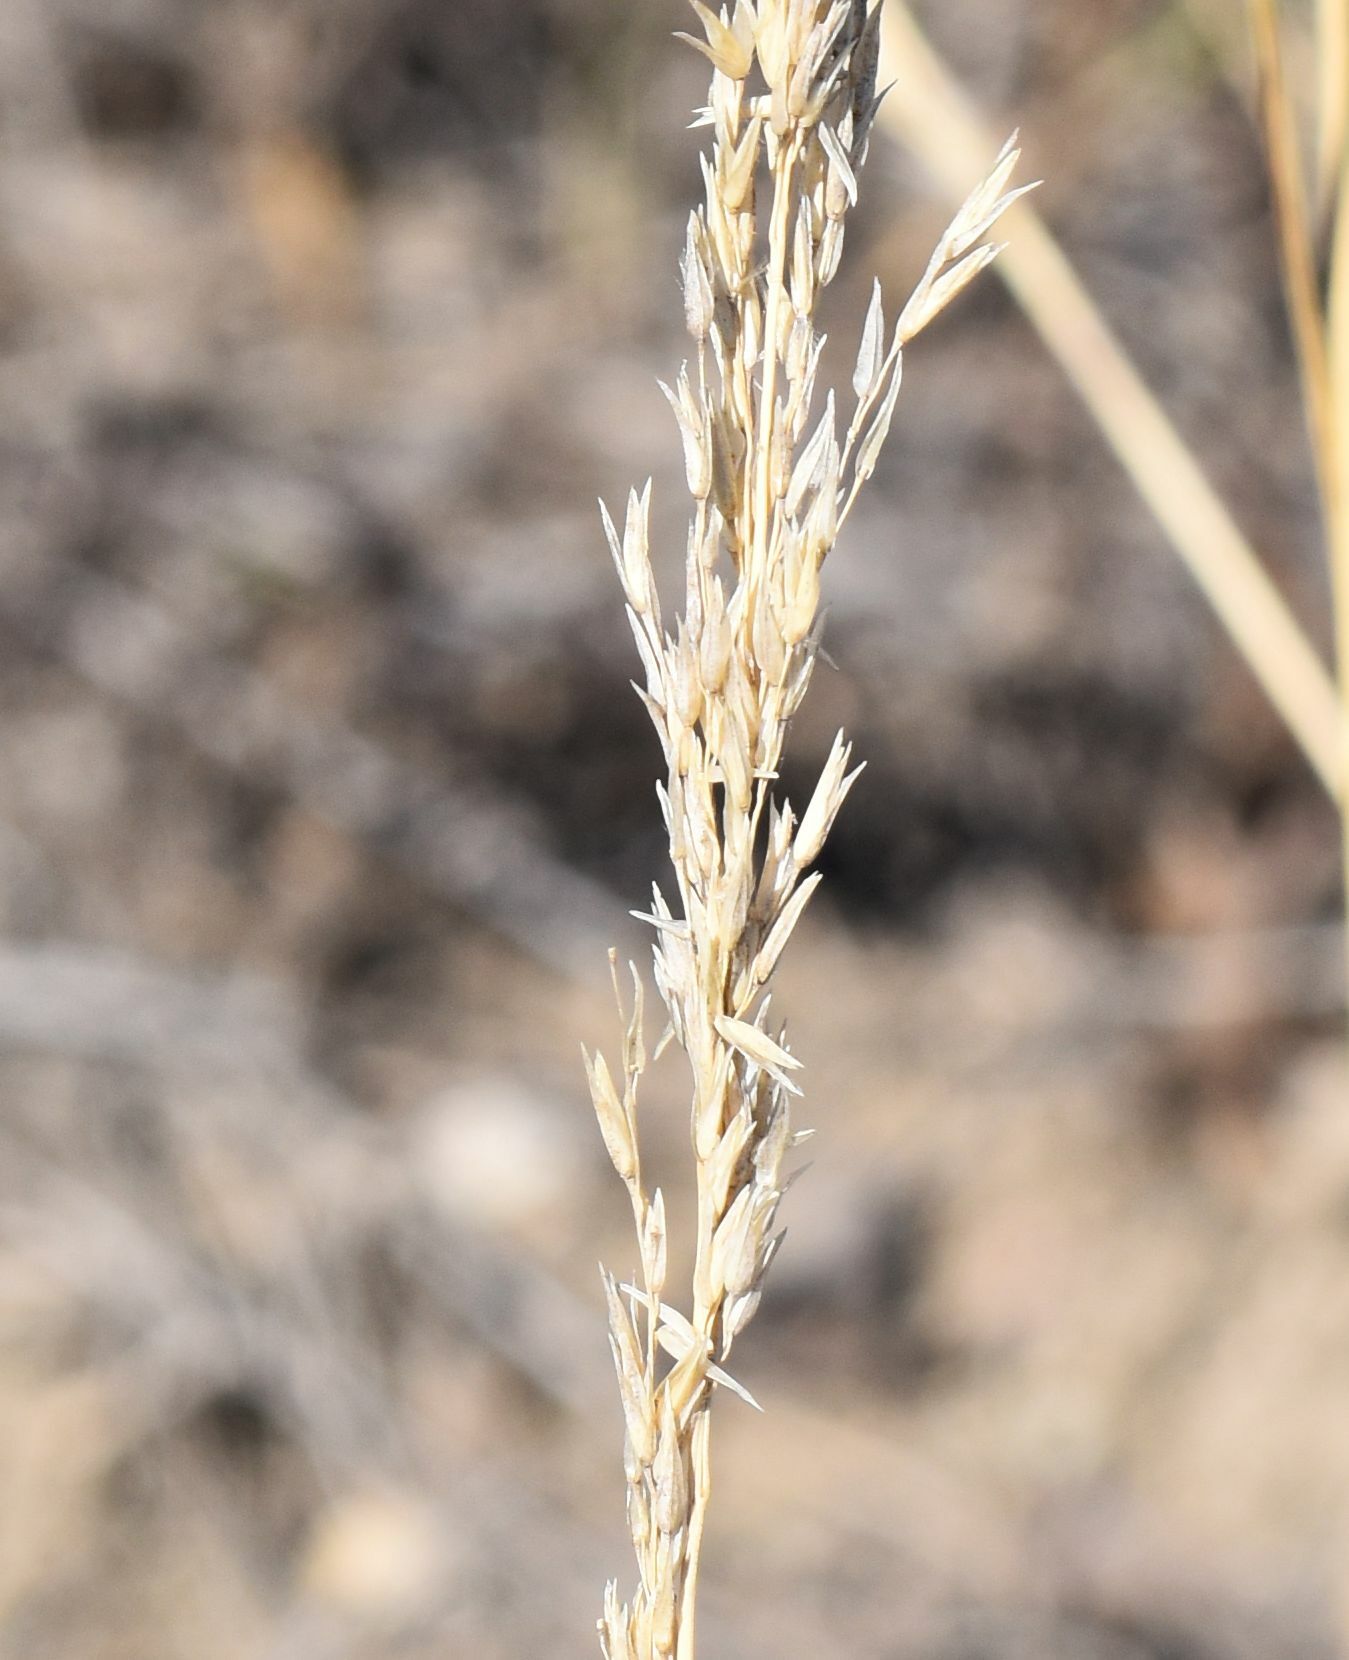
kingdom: Plantae
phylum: Tracheophyta
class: Liliopsida
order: Poales
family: Poaceae
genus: Sporobolus
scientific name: Sporobolus rigidus
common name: Prairie sandreed
